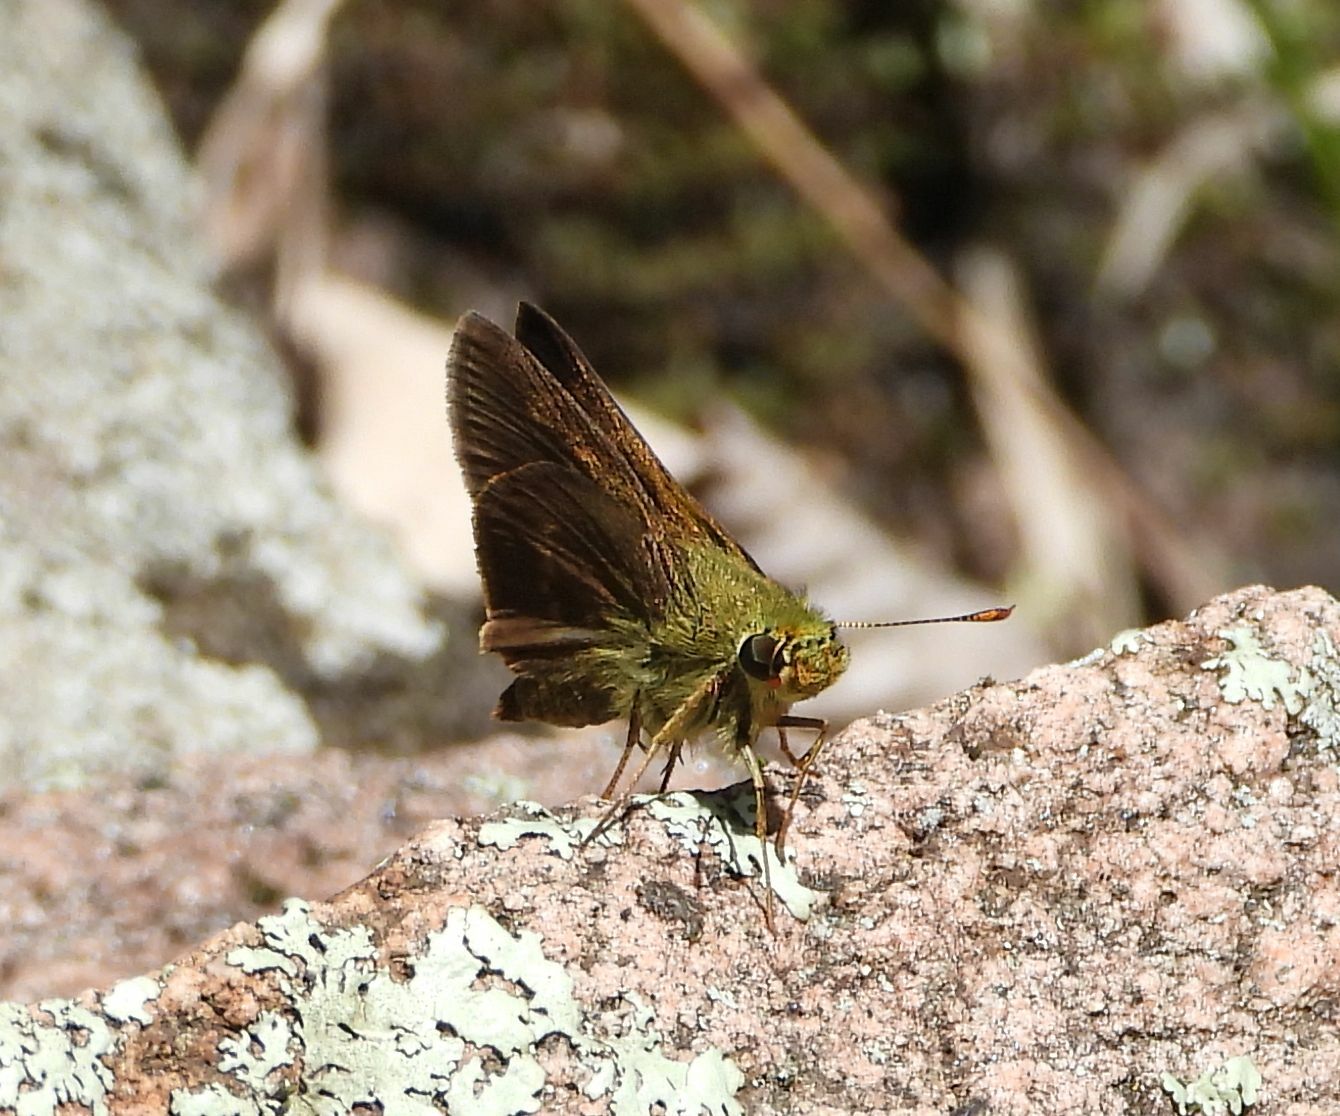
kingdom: Animalia
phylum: Arthropoda
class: Insecta
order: Lepidoptera
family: Hesperiidae
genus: Euphyes
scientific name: Euphyes vestris
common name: Dun skipper
